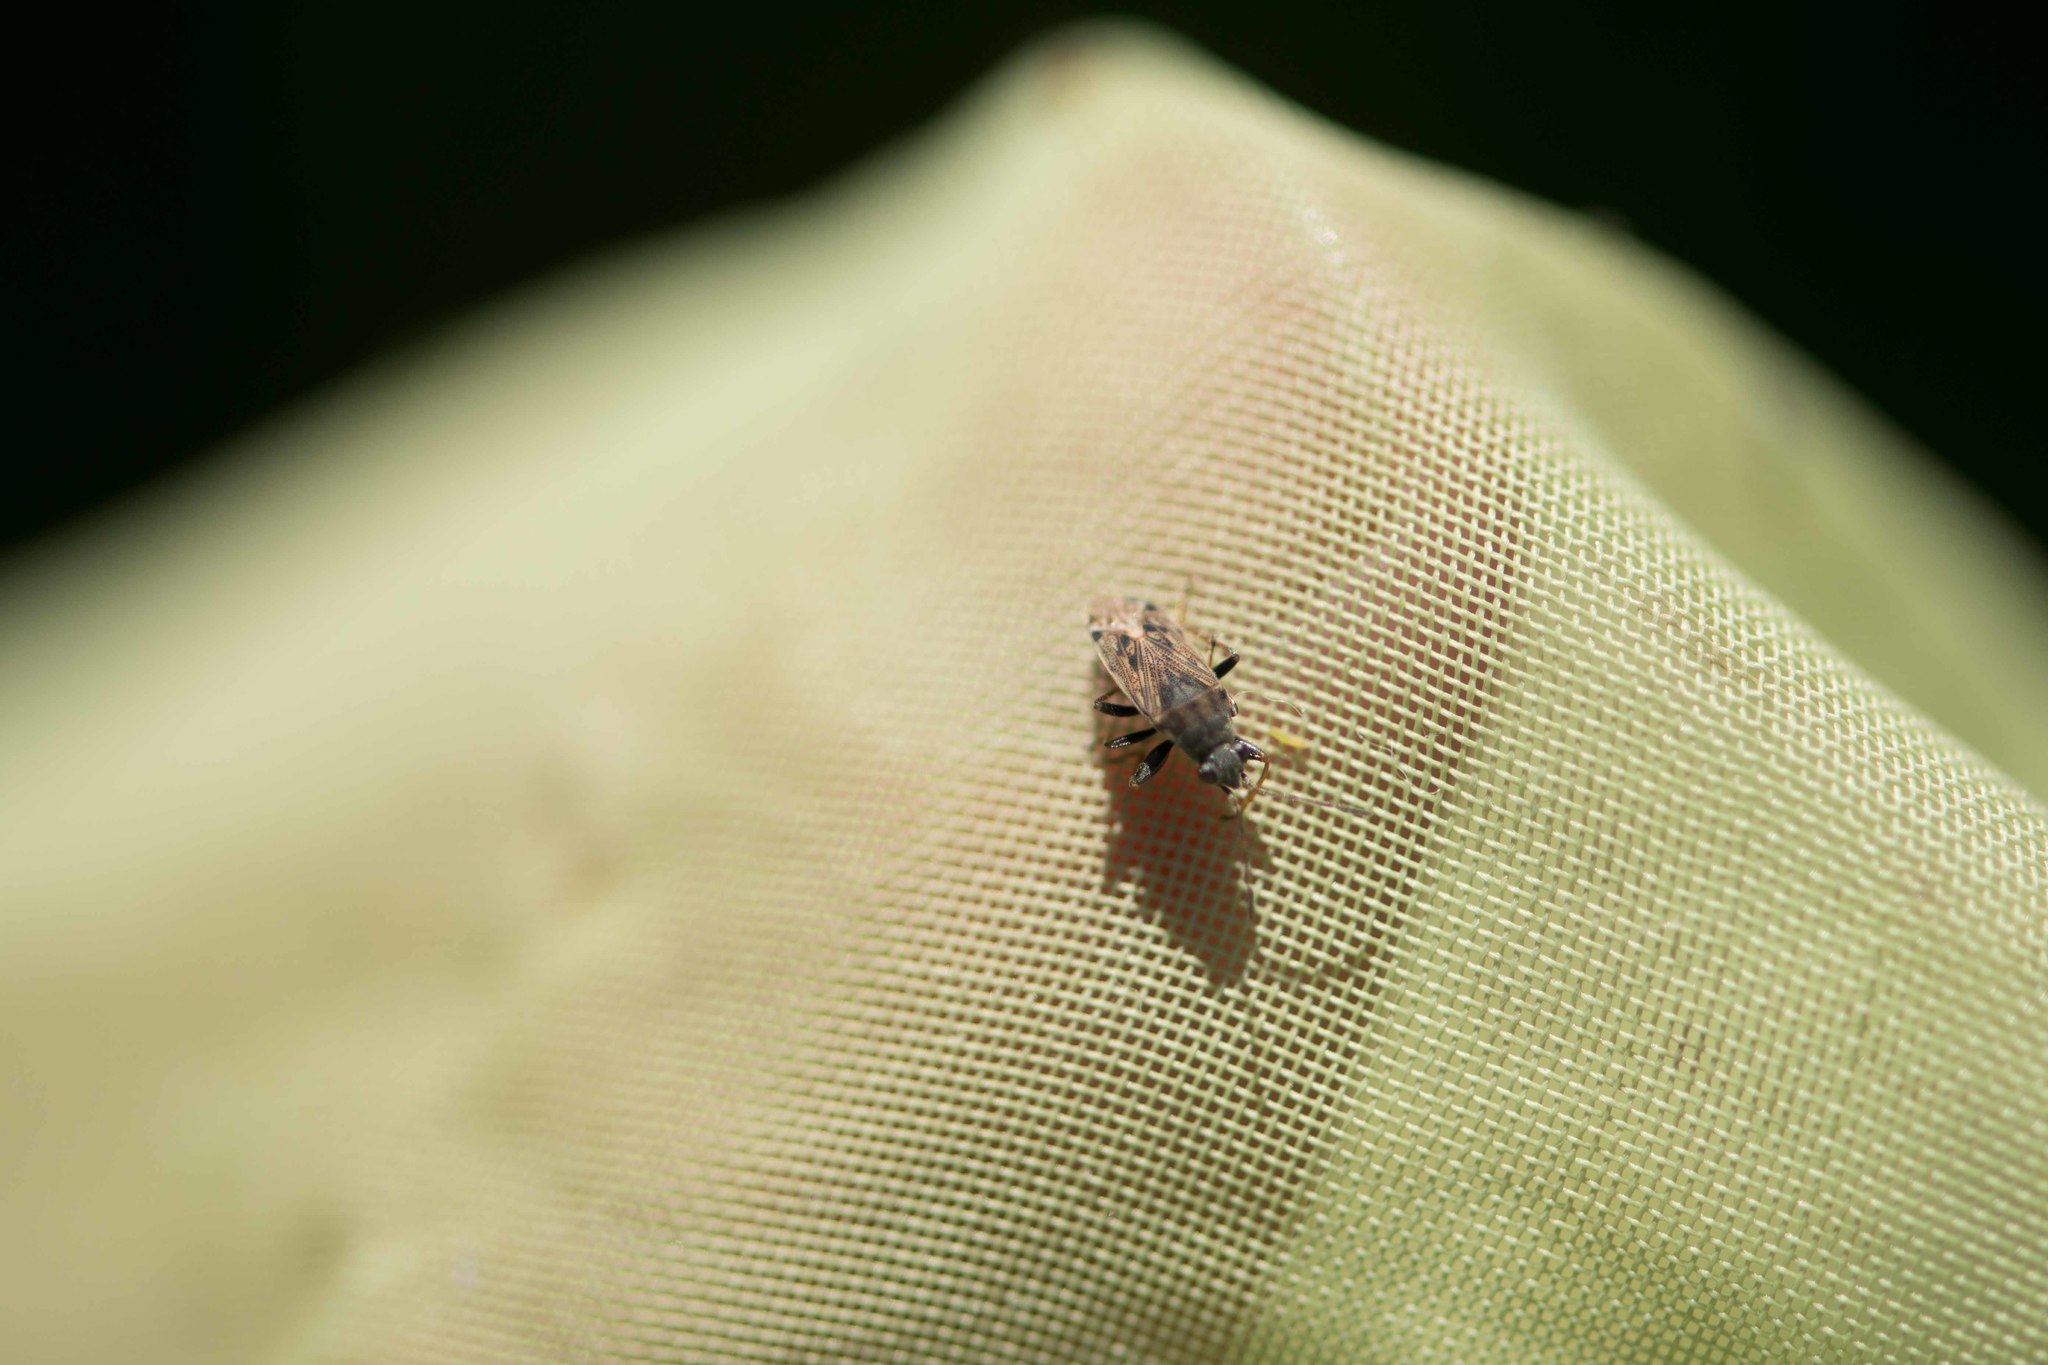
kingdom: Animalia
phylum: Arthropoda
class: Insecta
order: Hemiptera
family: Rhyparochromidae
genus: Peritrechus
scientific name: Peritrechus gracilicornis
